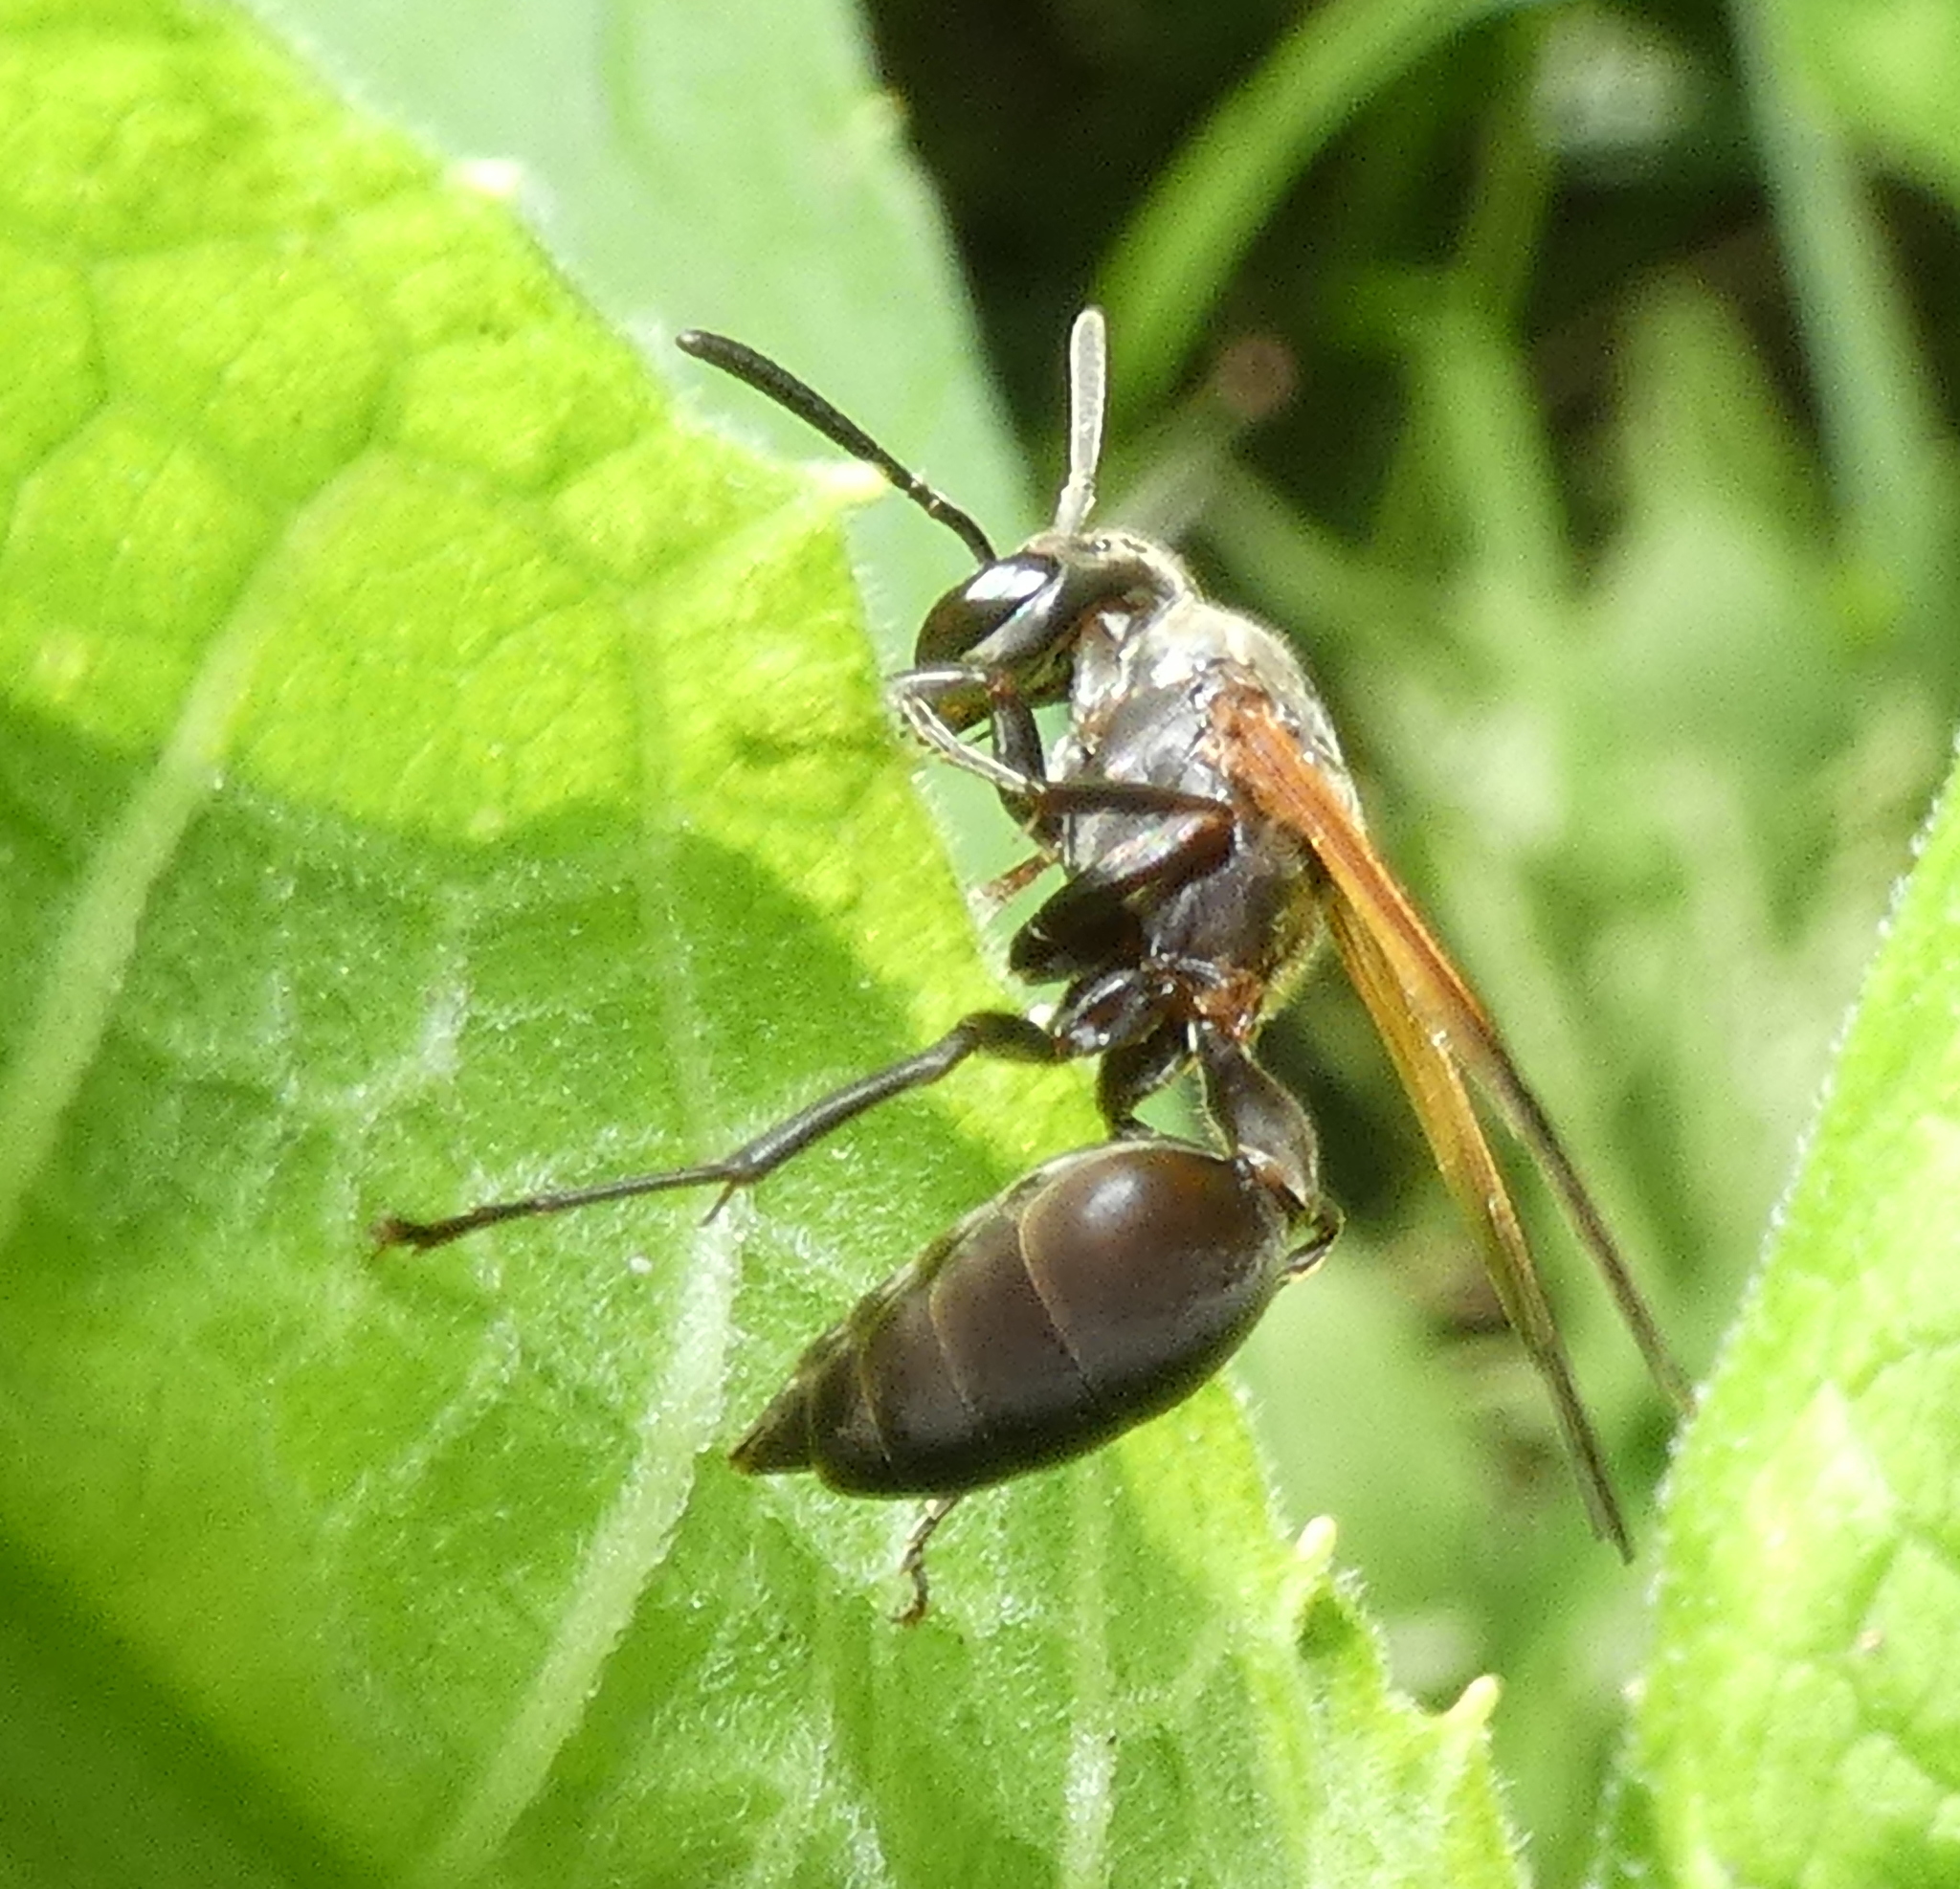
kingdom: Animalia
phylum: Arthropoda
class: Insecta
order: Hymenoptera
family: Eumenidae
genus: Polybia
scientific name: Polybia rejecta
